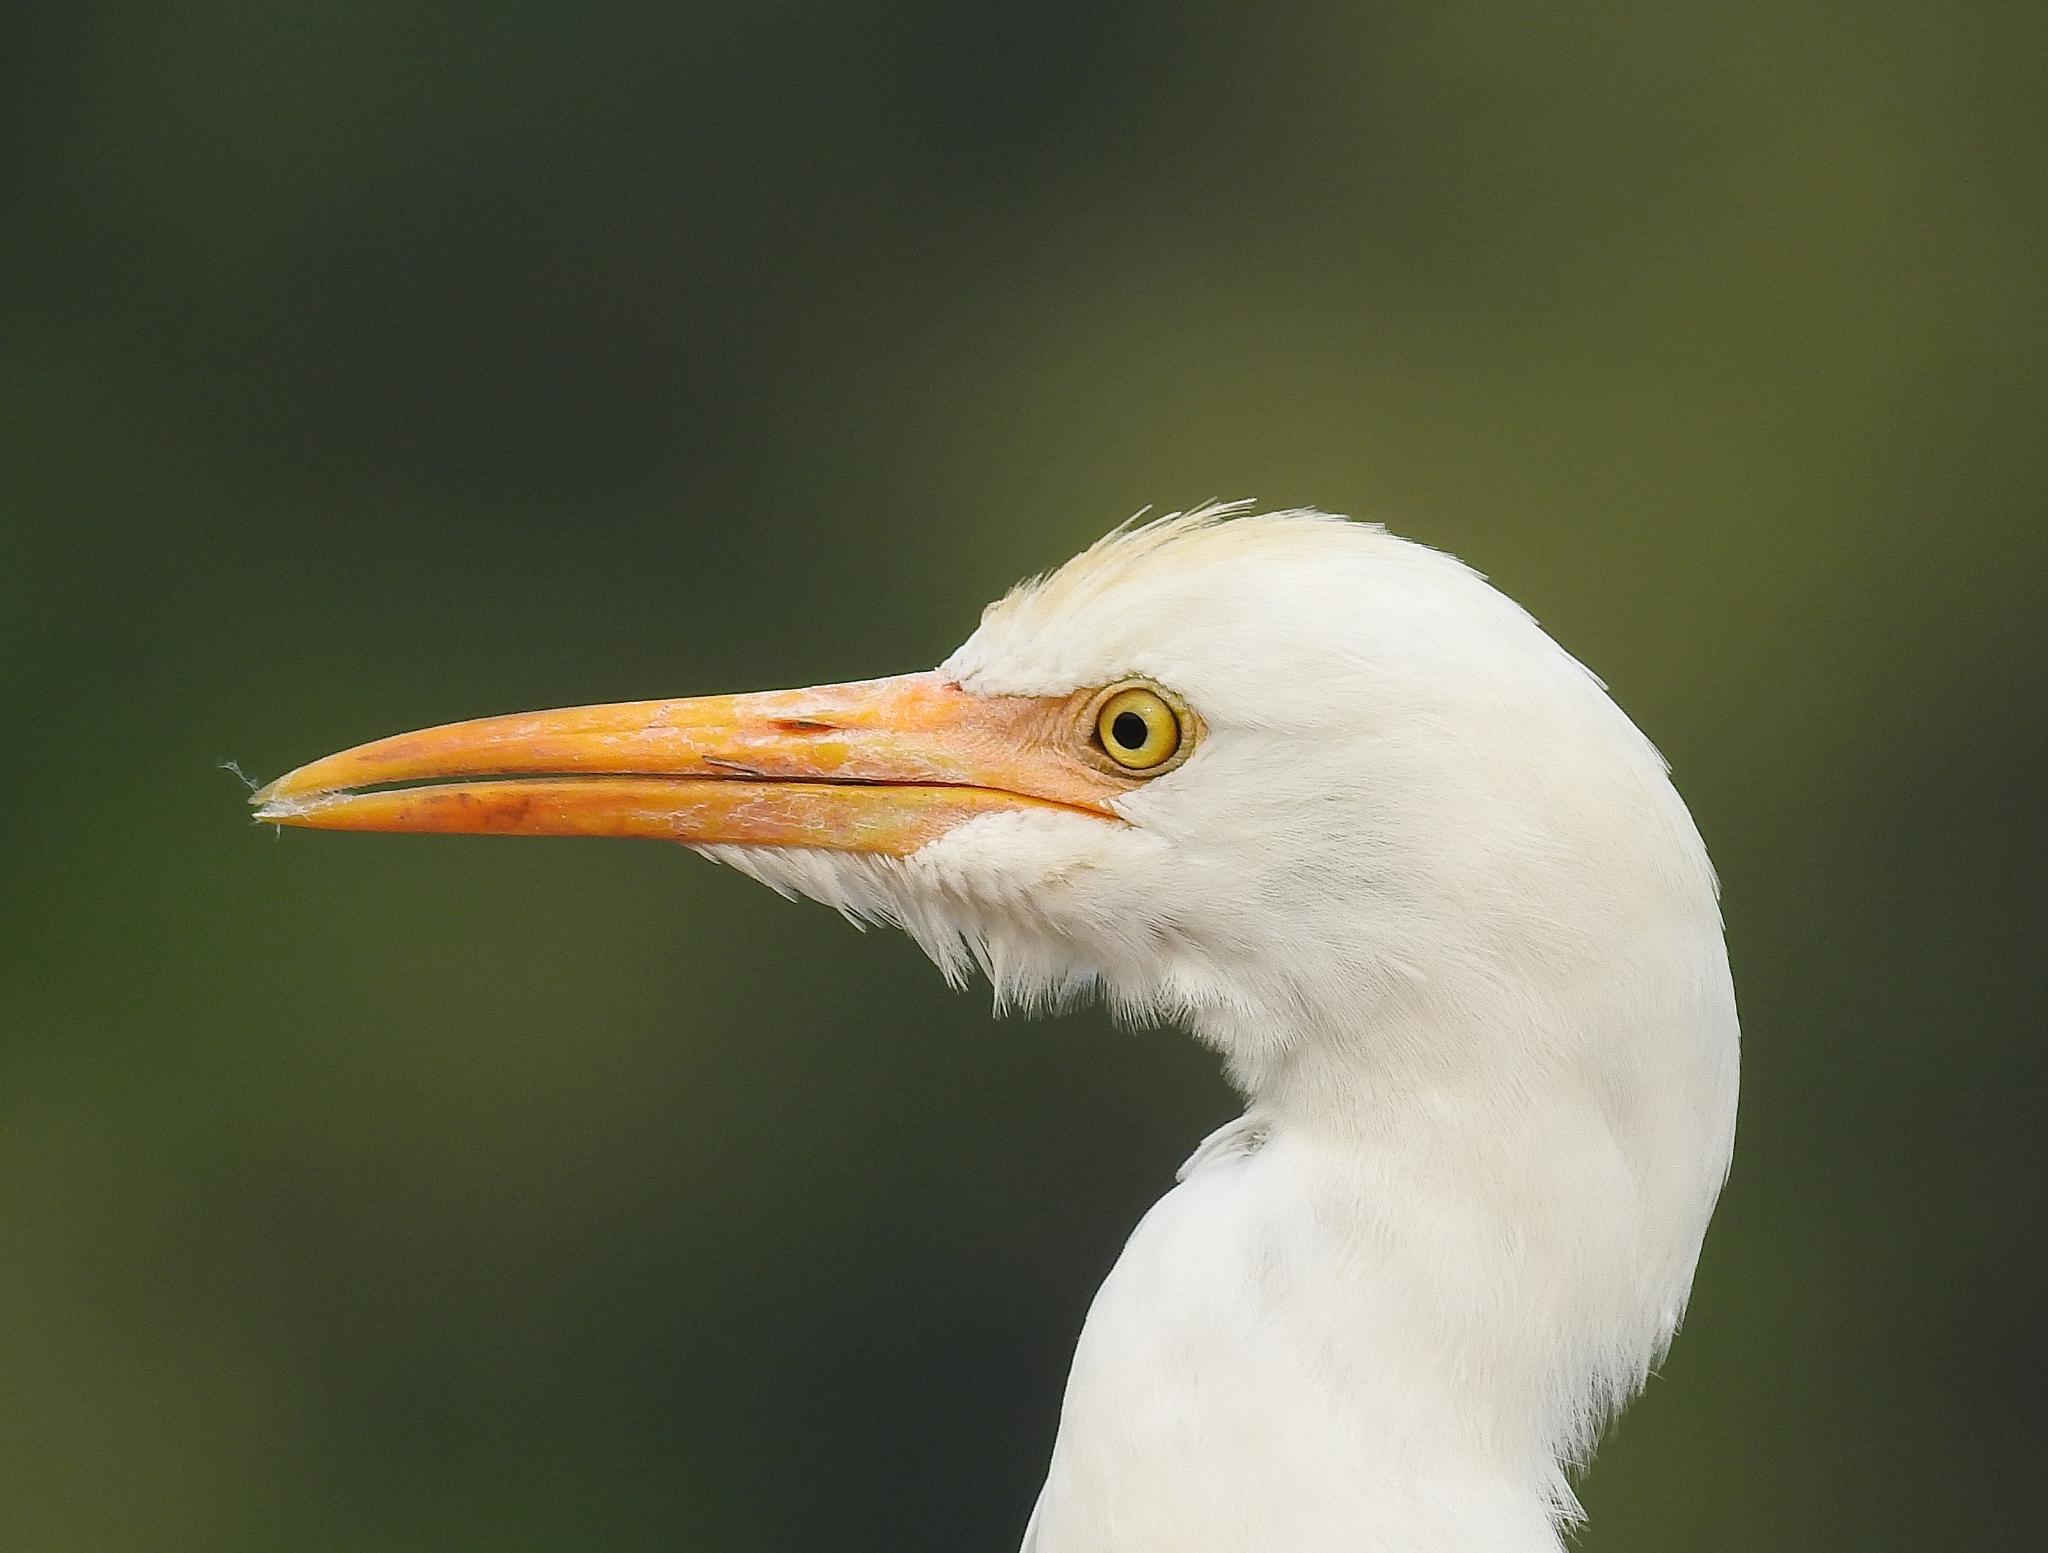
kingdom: Animalia
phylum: Chordata
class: Aves
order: Pelecaniformes
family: Ardeidae
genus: Bubulcus
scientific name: Bubulcus coromandus
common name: Eastern cattle egret
